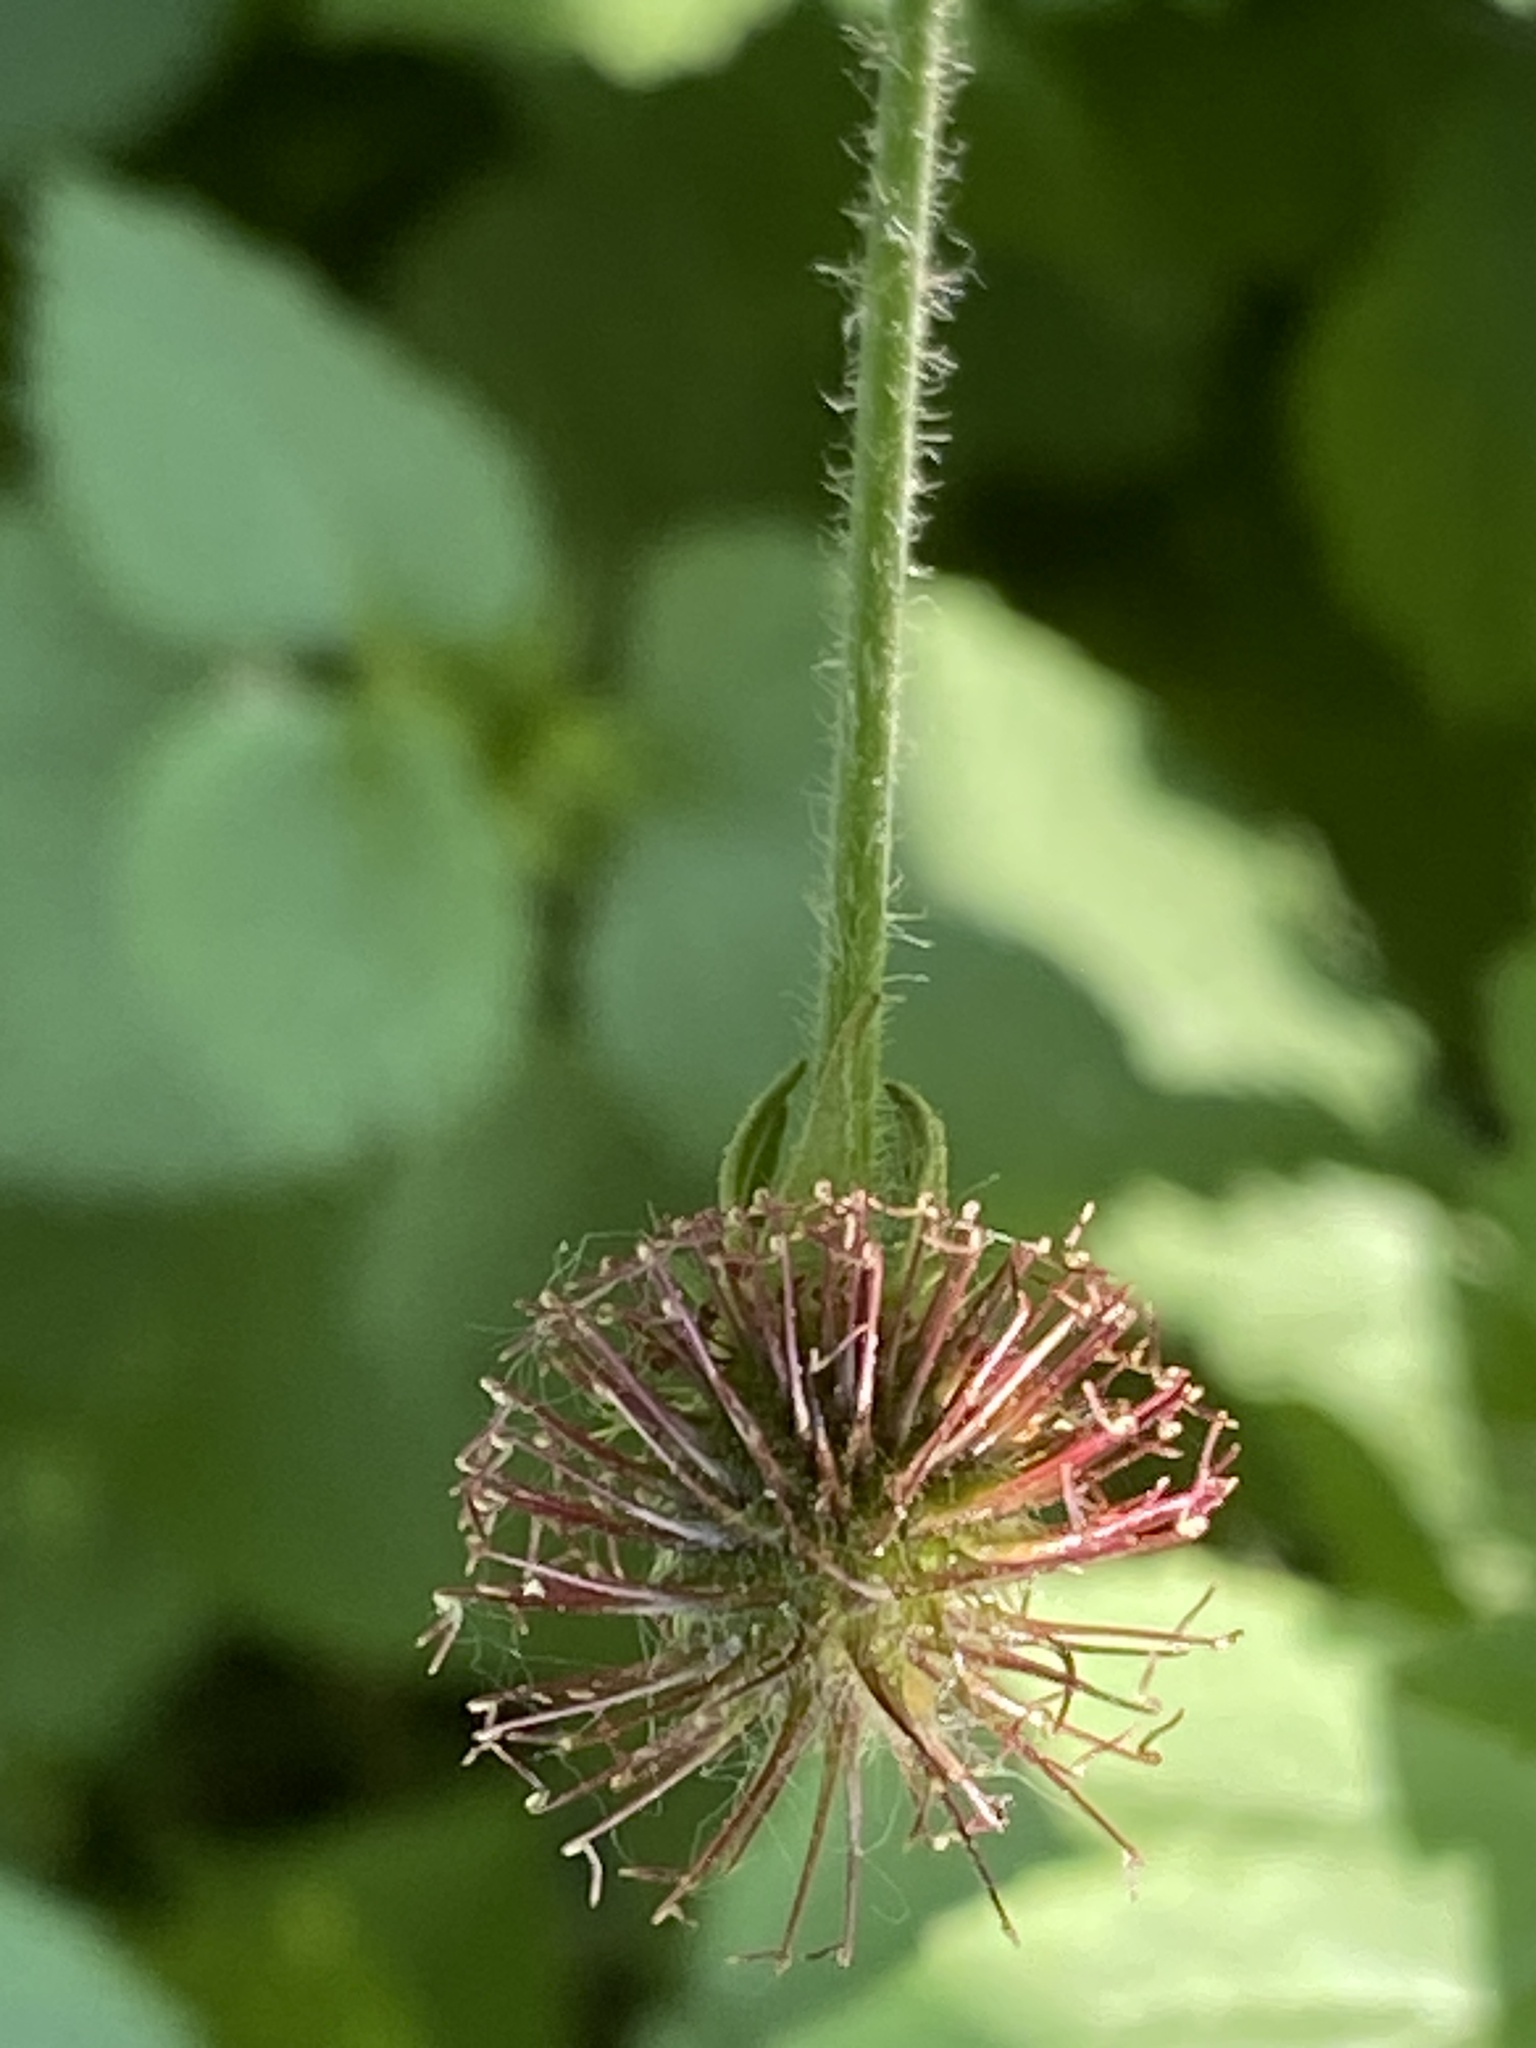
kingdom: Plantae
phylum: Tracheophyta
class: Magnoliopsida
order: Rosales
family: Rosaceae
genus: Geum
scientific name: Geum urbanum
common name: Wood avens
